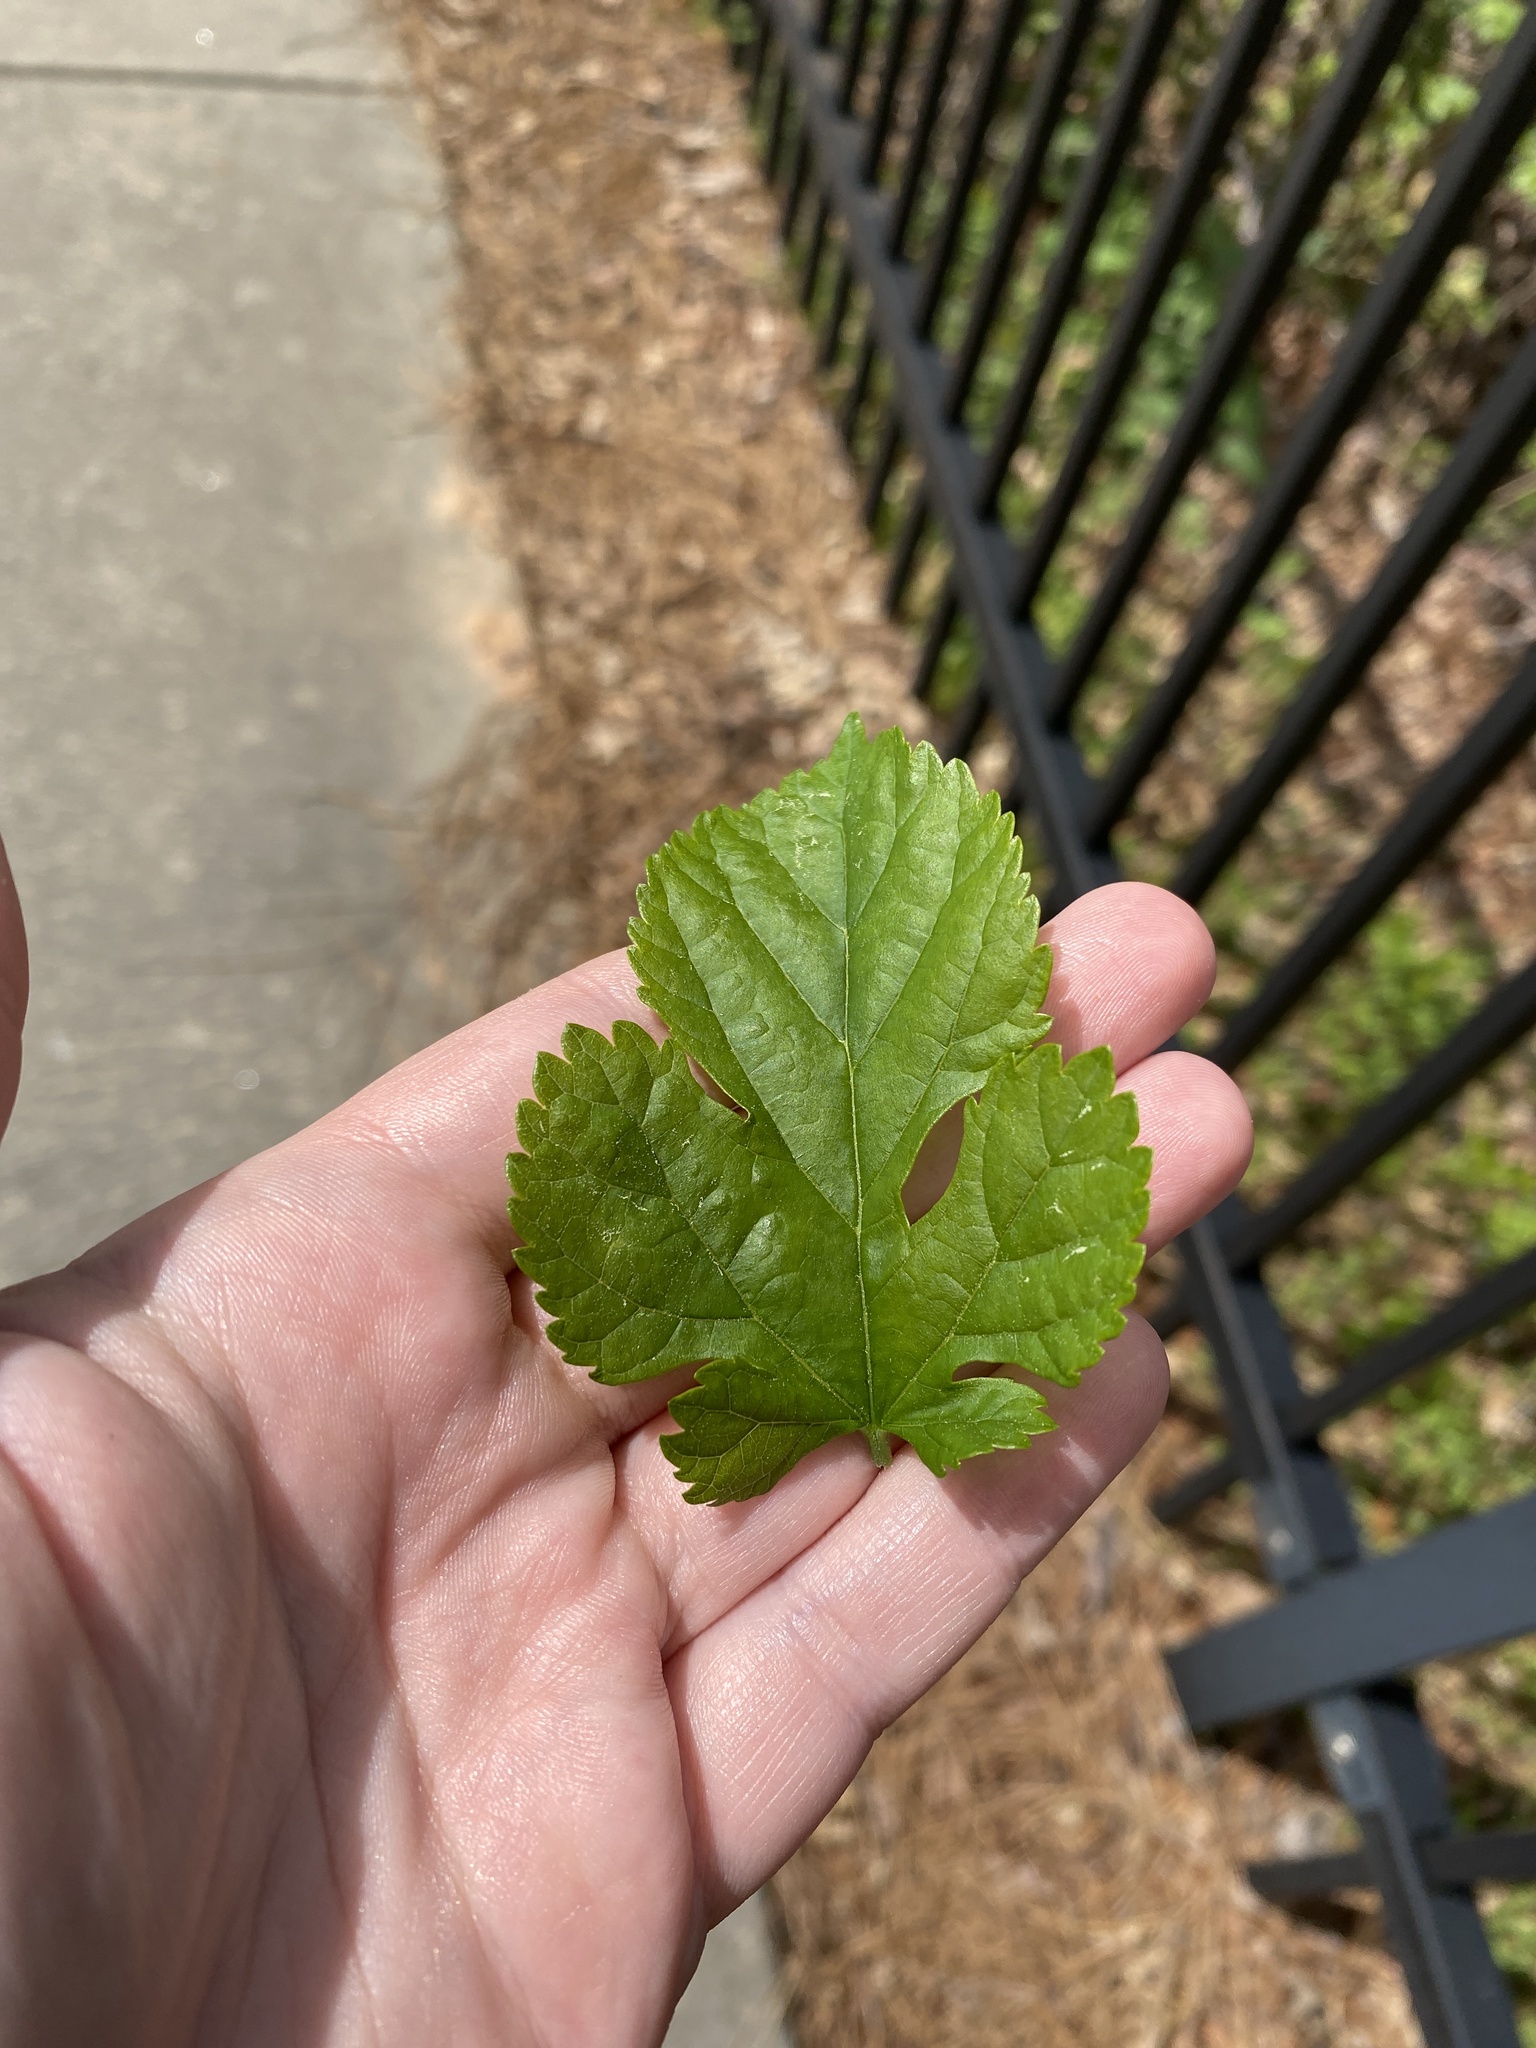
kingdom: Plantae
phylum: Tracheophyta
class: Magnoliopsida
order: Rosales
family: Moraceae
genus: Morus
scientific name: Morus alba
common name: White mulberry
